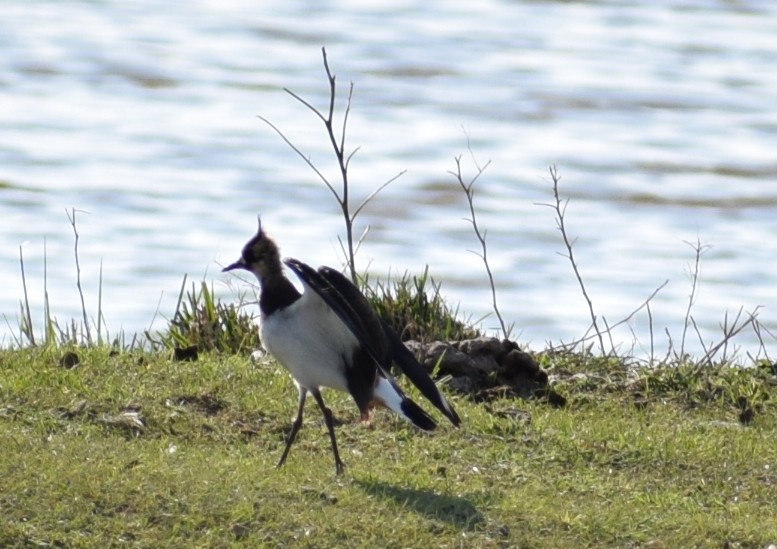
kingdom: Animalia
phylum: Chordata
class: Aves
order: Charadriiformes
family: Charadriidae
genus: Vanellus
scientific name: Vanellus vanellus
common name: Northern lapwing
